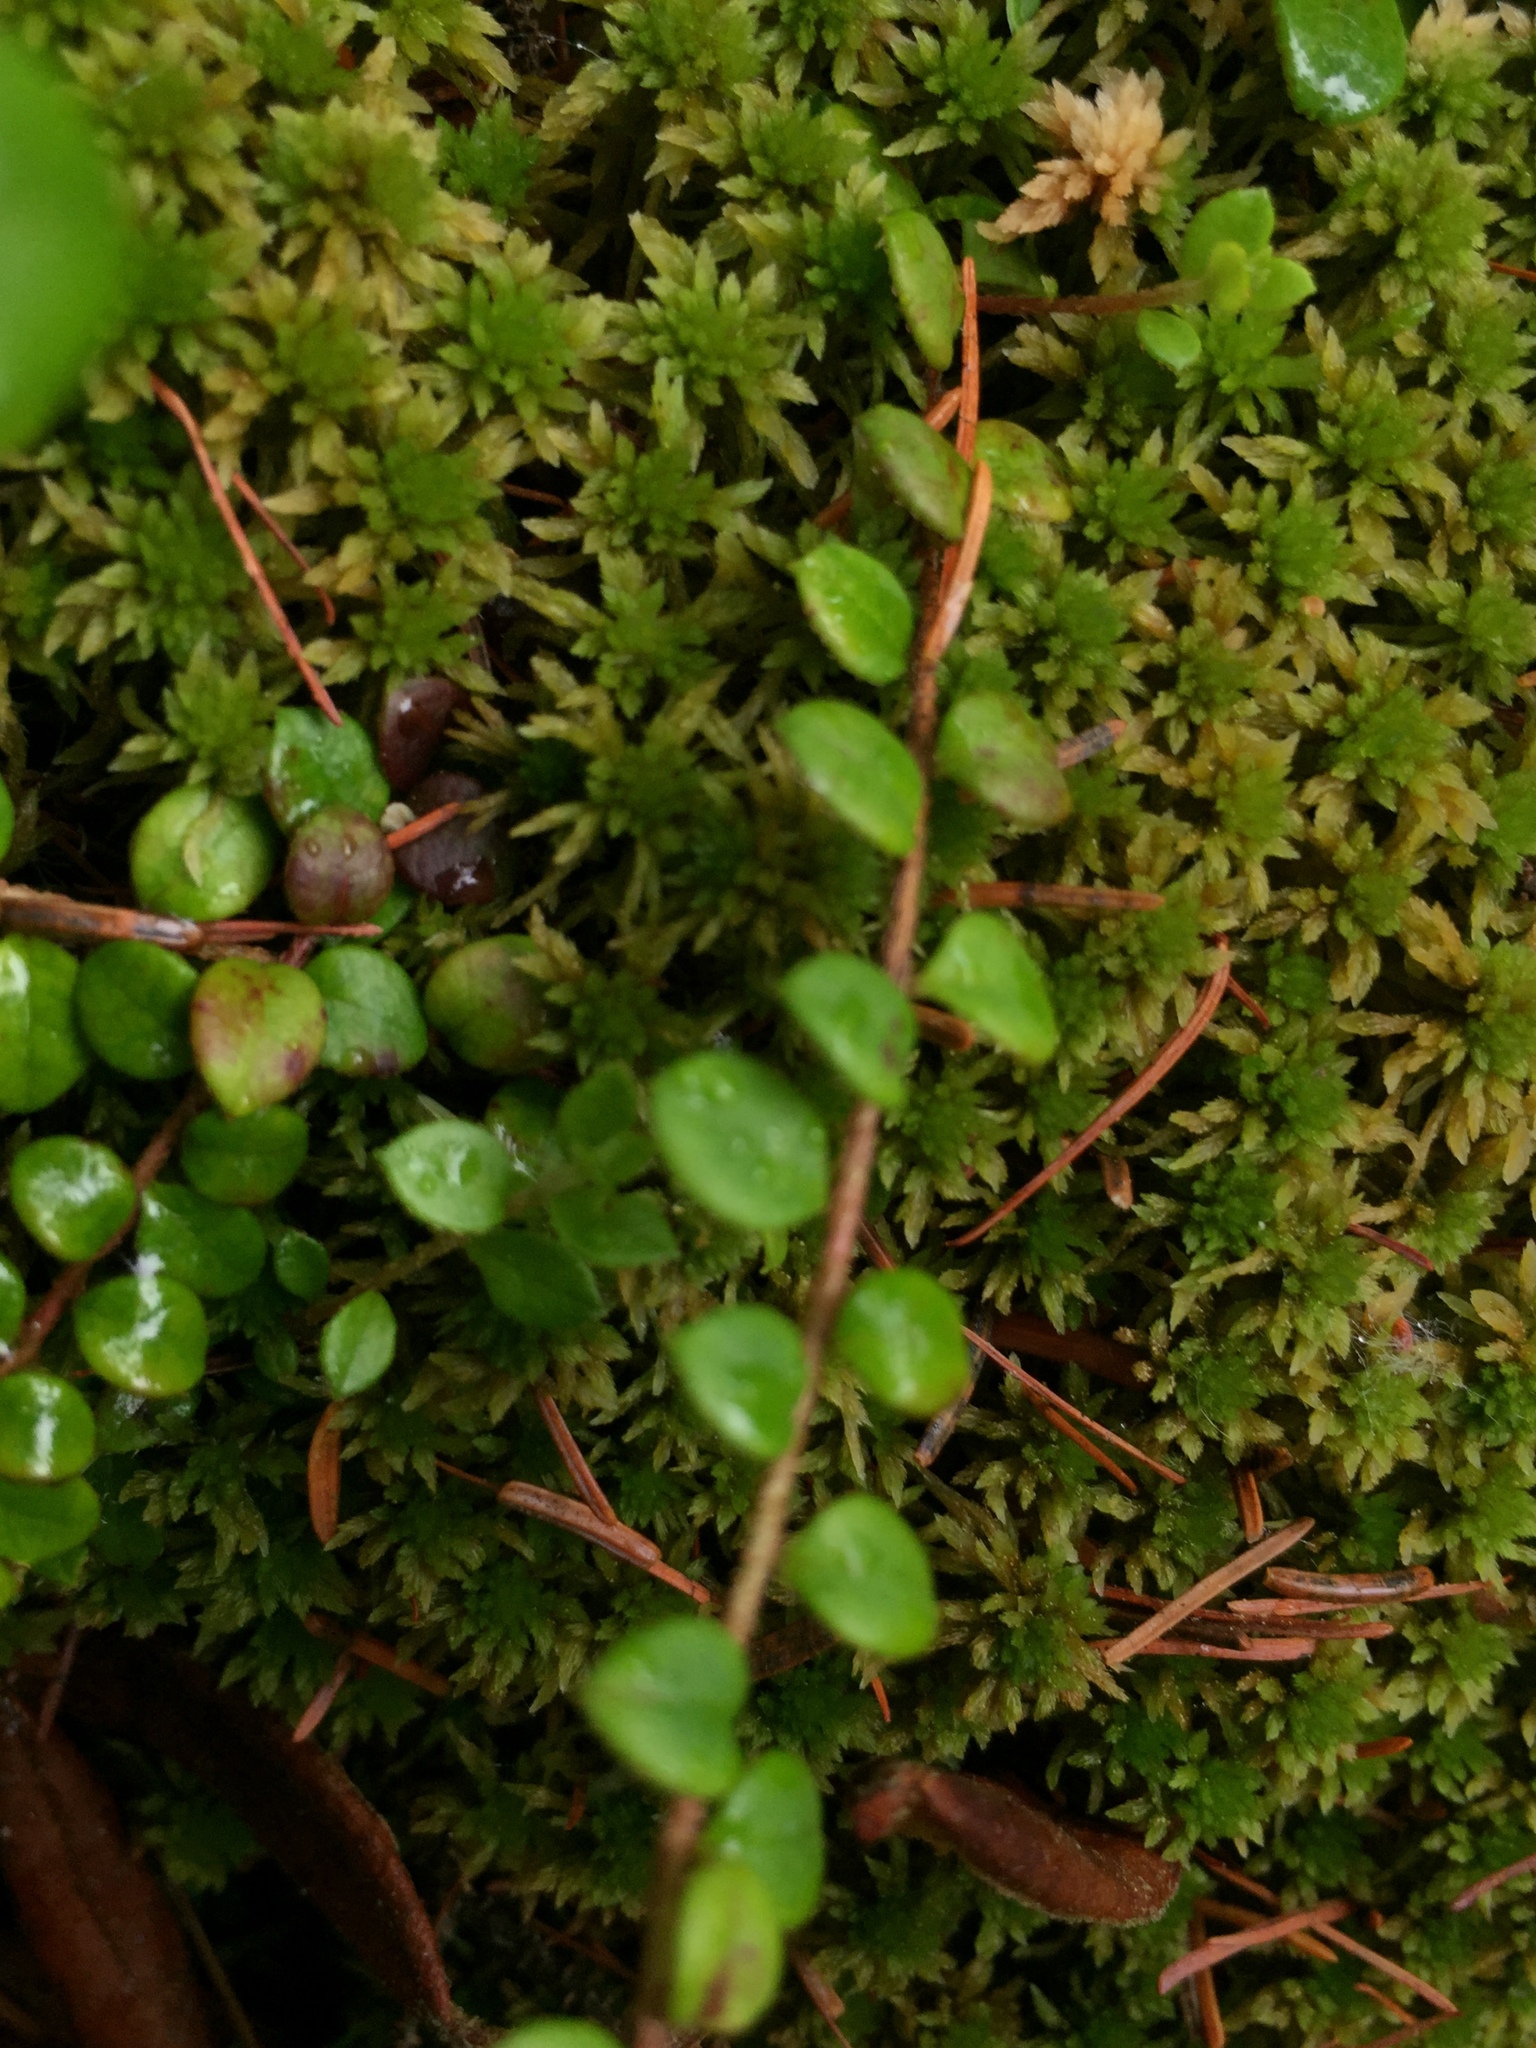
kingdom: Plantae
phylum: Tracheophyta
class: Magnoliopsida
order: Ericales
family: Ericaceae
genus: Gaultheria
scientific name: Gaultheria hispidula
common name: Cancer wintergreen
